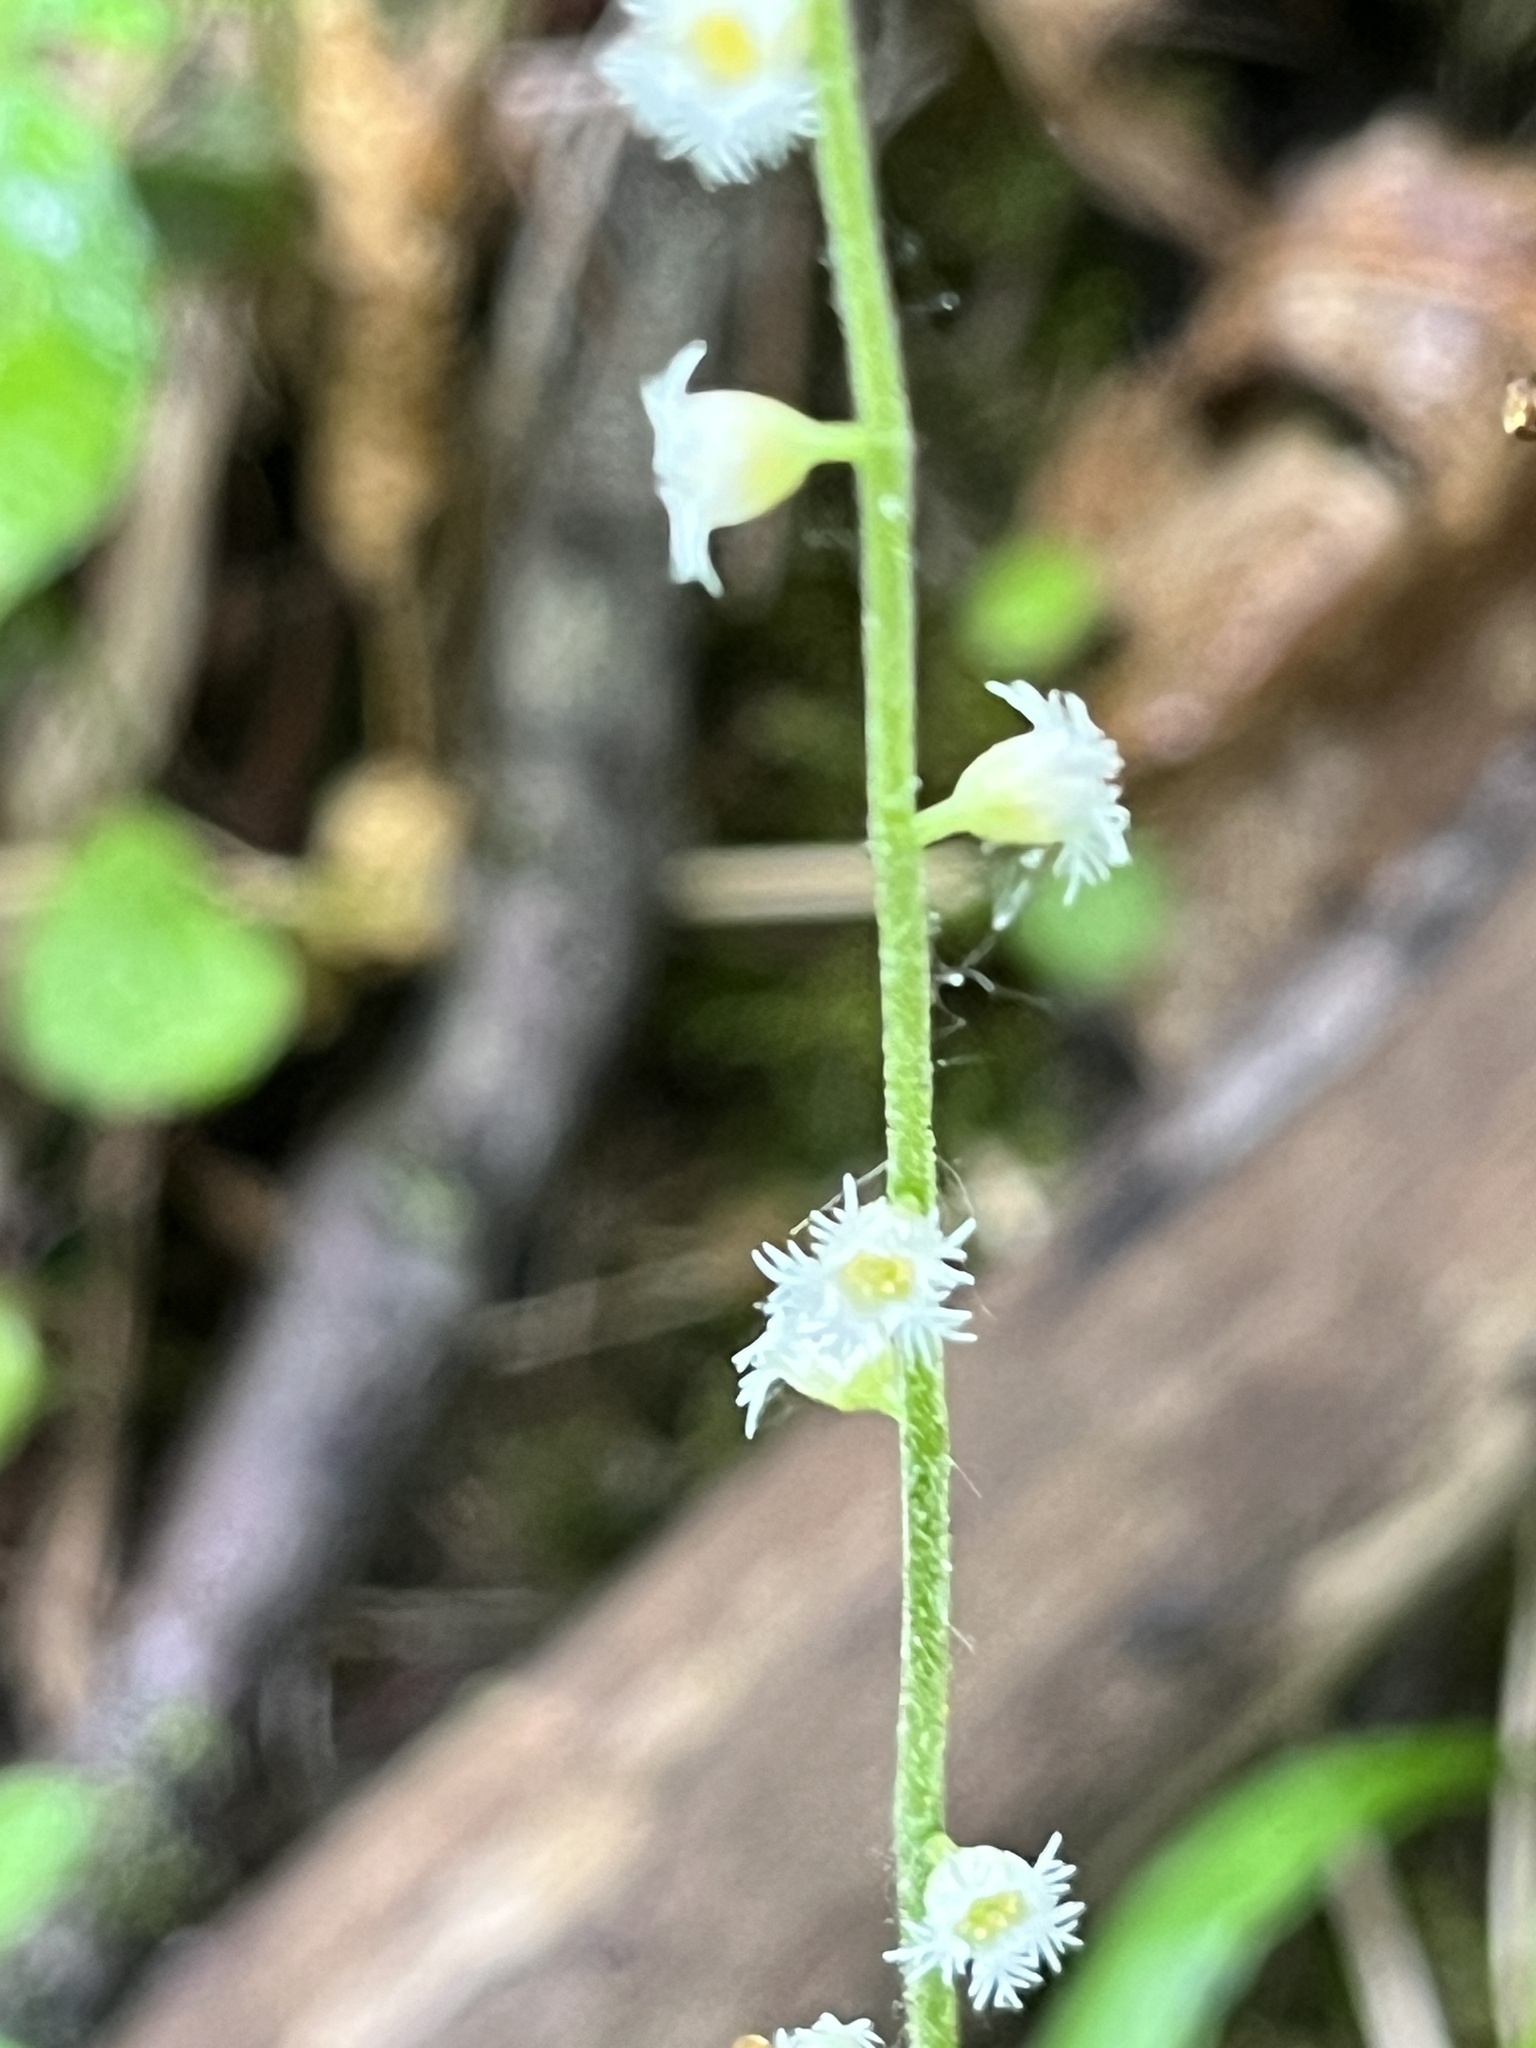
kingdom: Plantae
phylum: Tracheophyta
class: Magnoliopsida
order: Saxifragales
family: Saxifragaceae
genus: Mitella
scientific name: Mitella diphylla
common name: Coolwort
